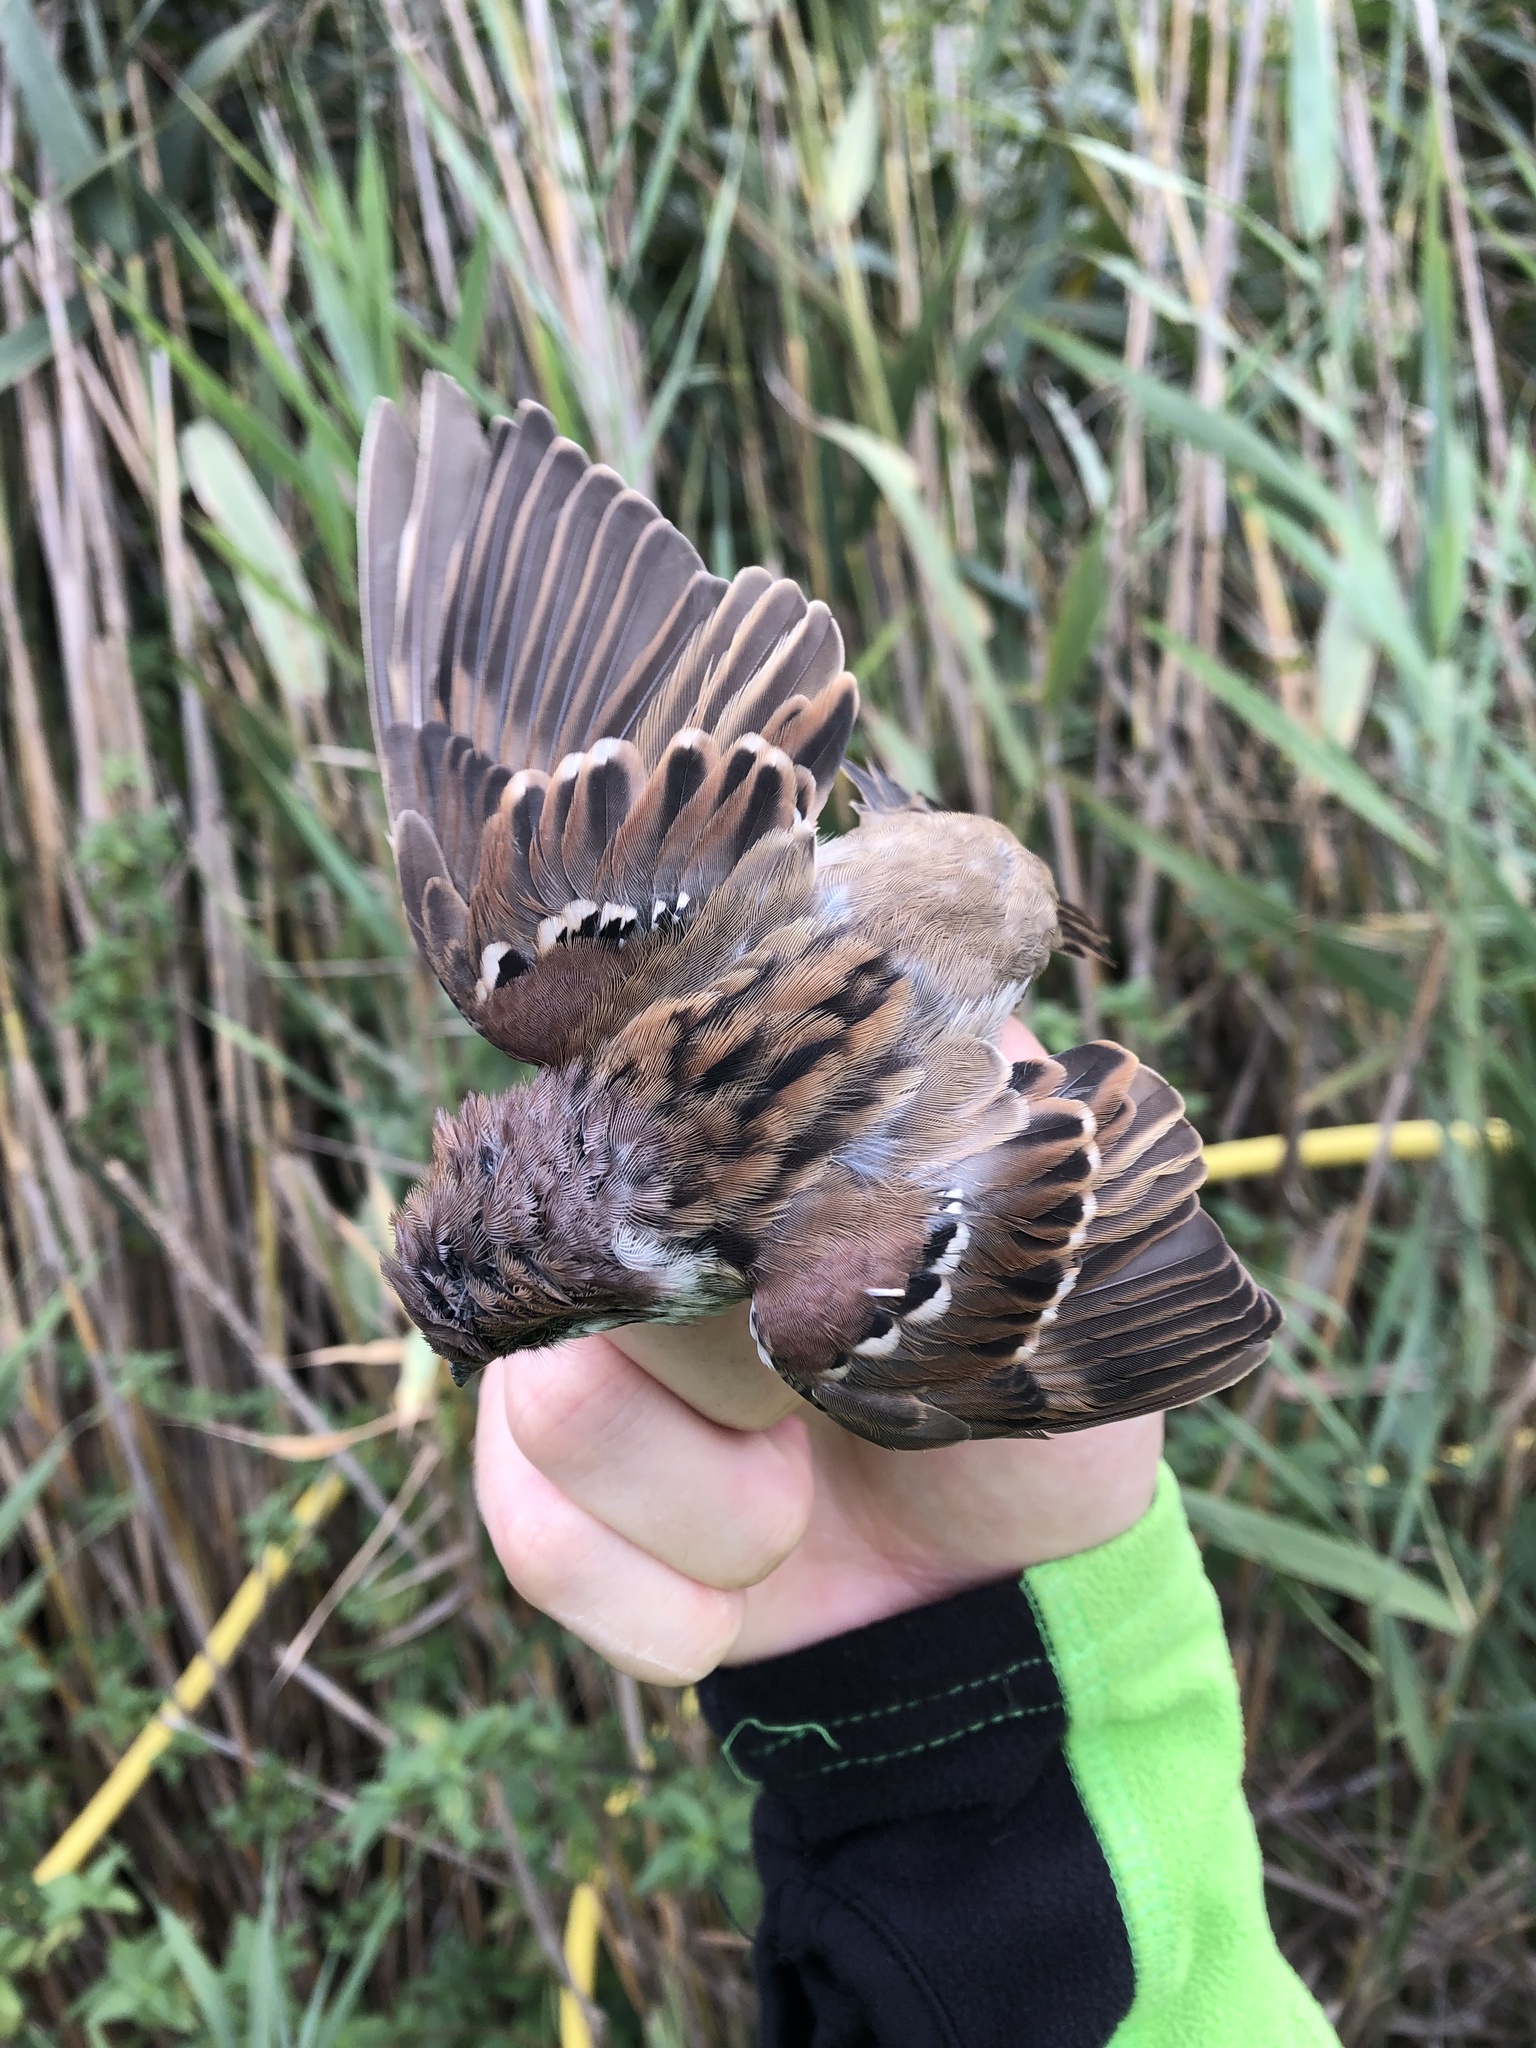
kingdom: Animalia
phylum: Chordata
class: Aves
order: Passeriformes
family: Passeridae
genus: Passer
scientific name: Passer montanus
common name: Eurasian tree sparrow
